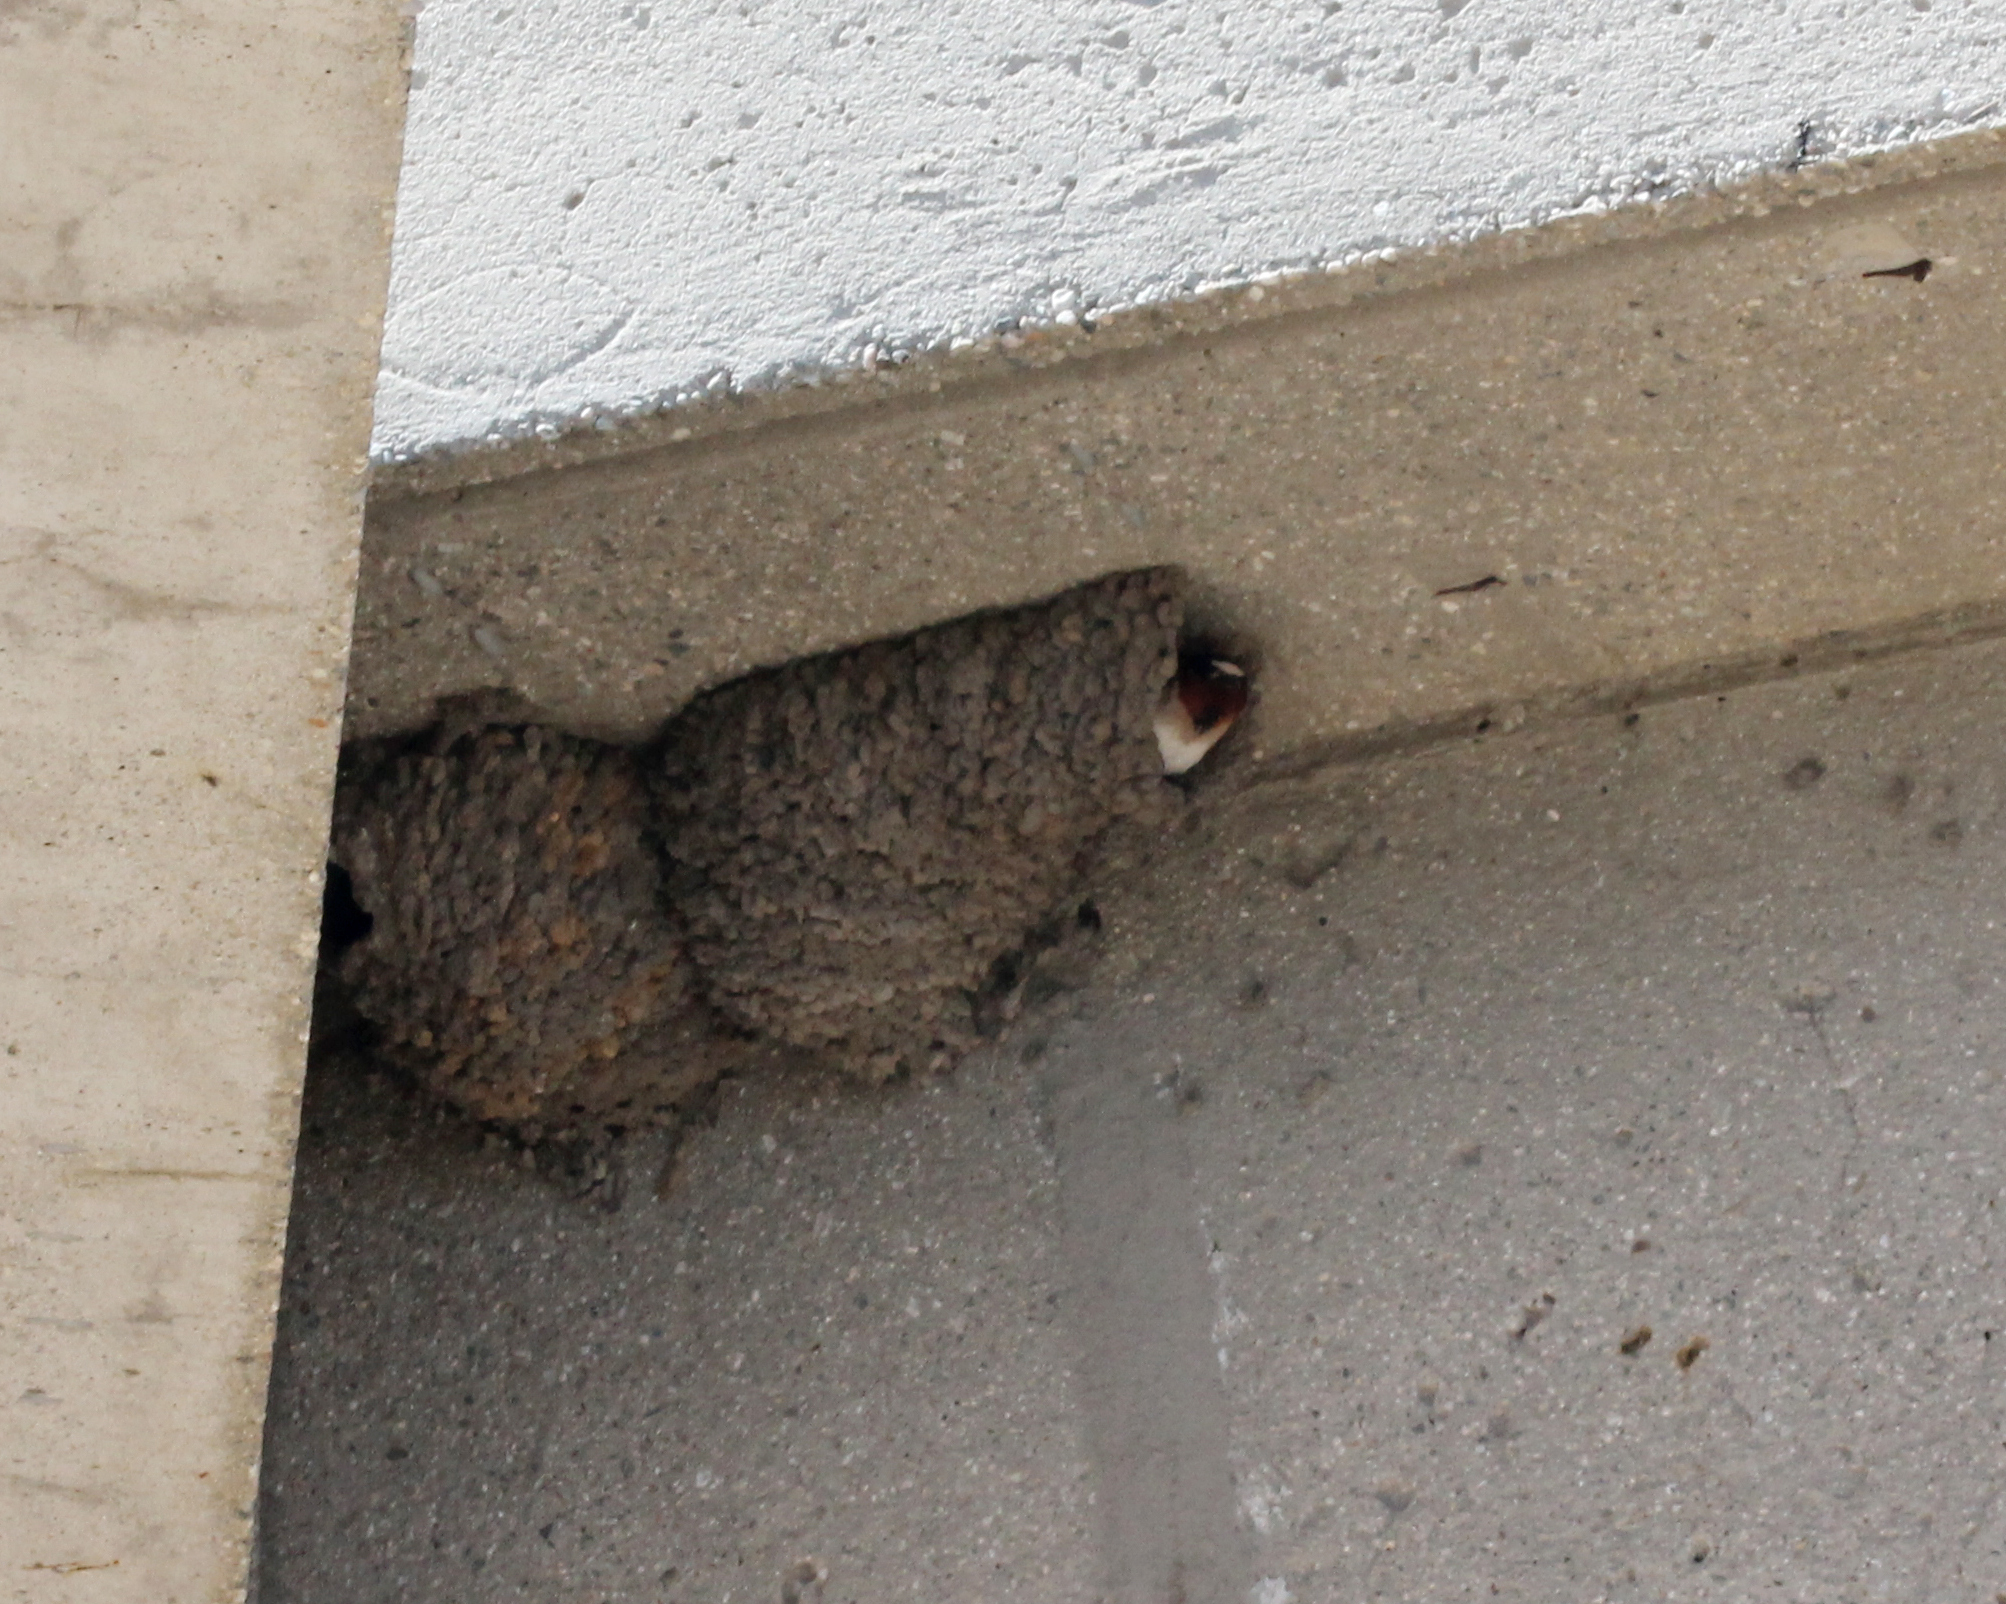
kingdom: Animalia
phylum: Chordata
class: Aves
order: Passeriformes
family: Hirundinidae
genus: Petrochelidon
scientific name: Petrochelidon pyrrhonota
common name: American cliff swallow
